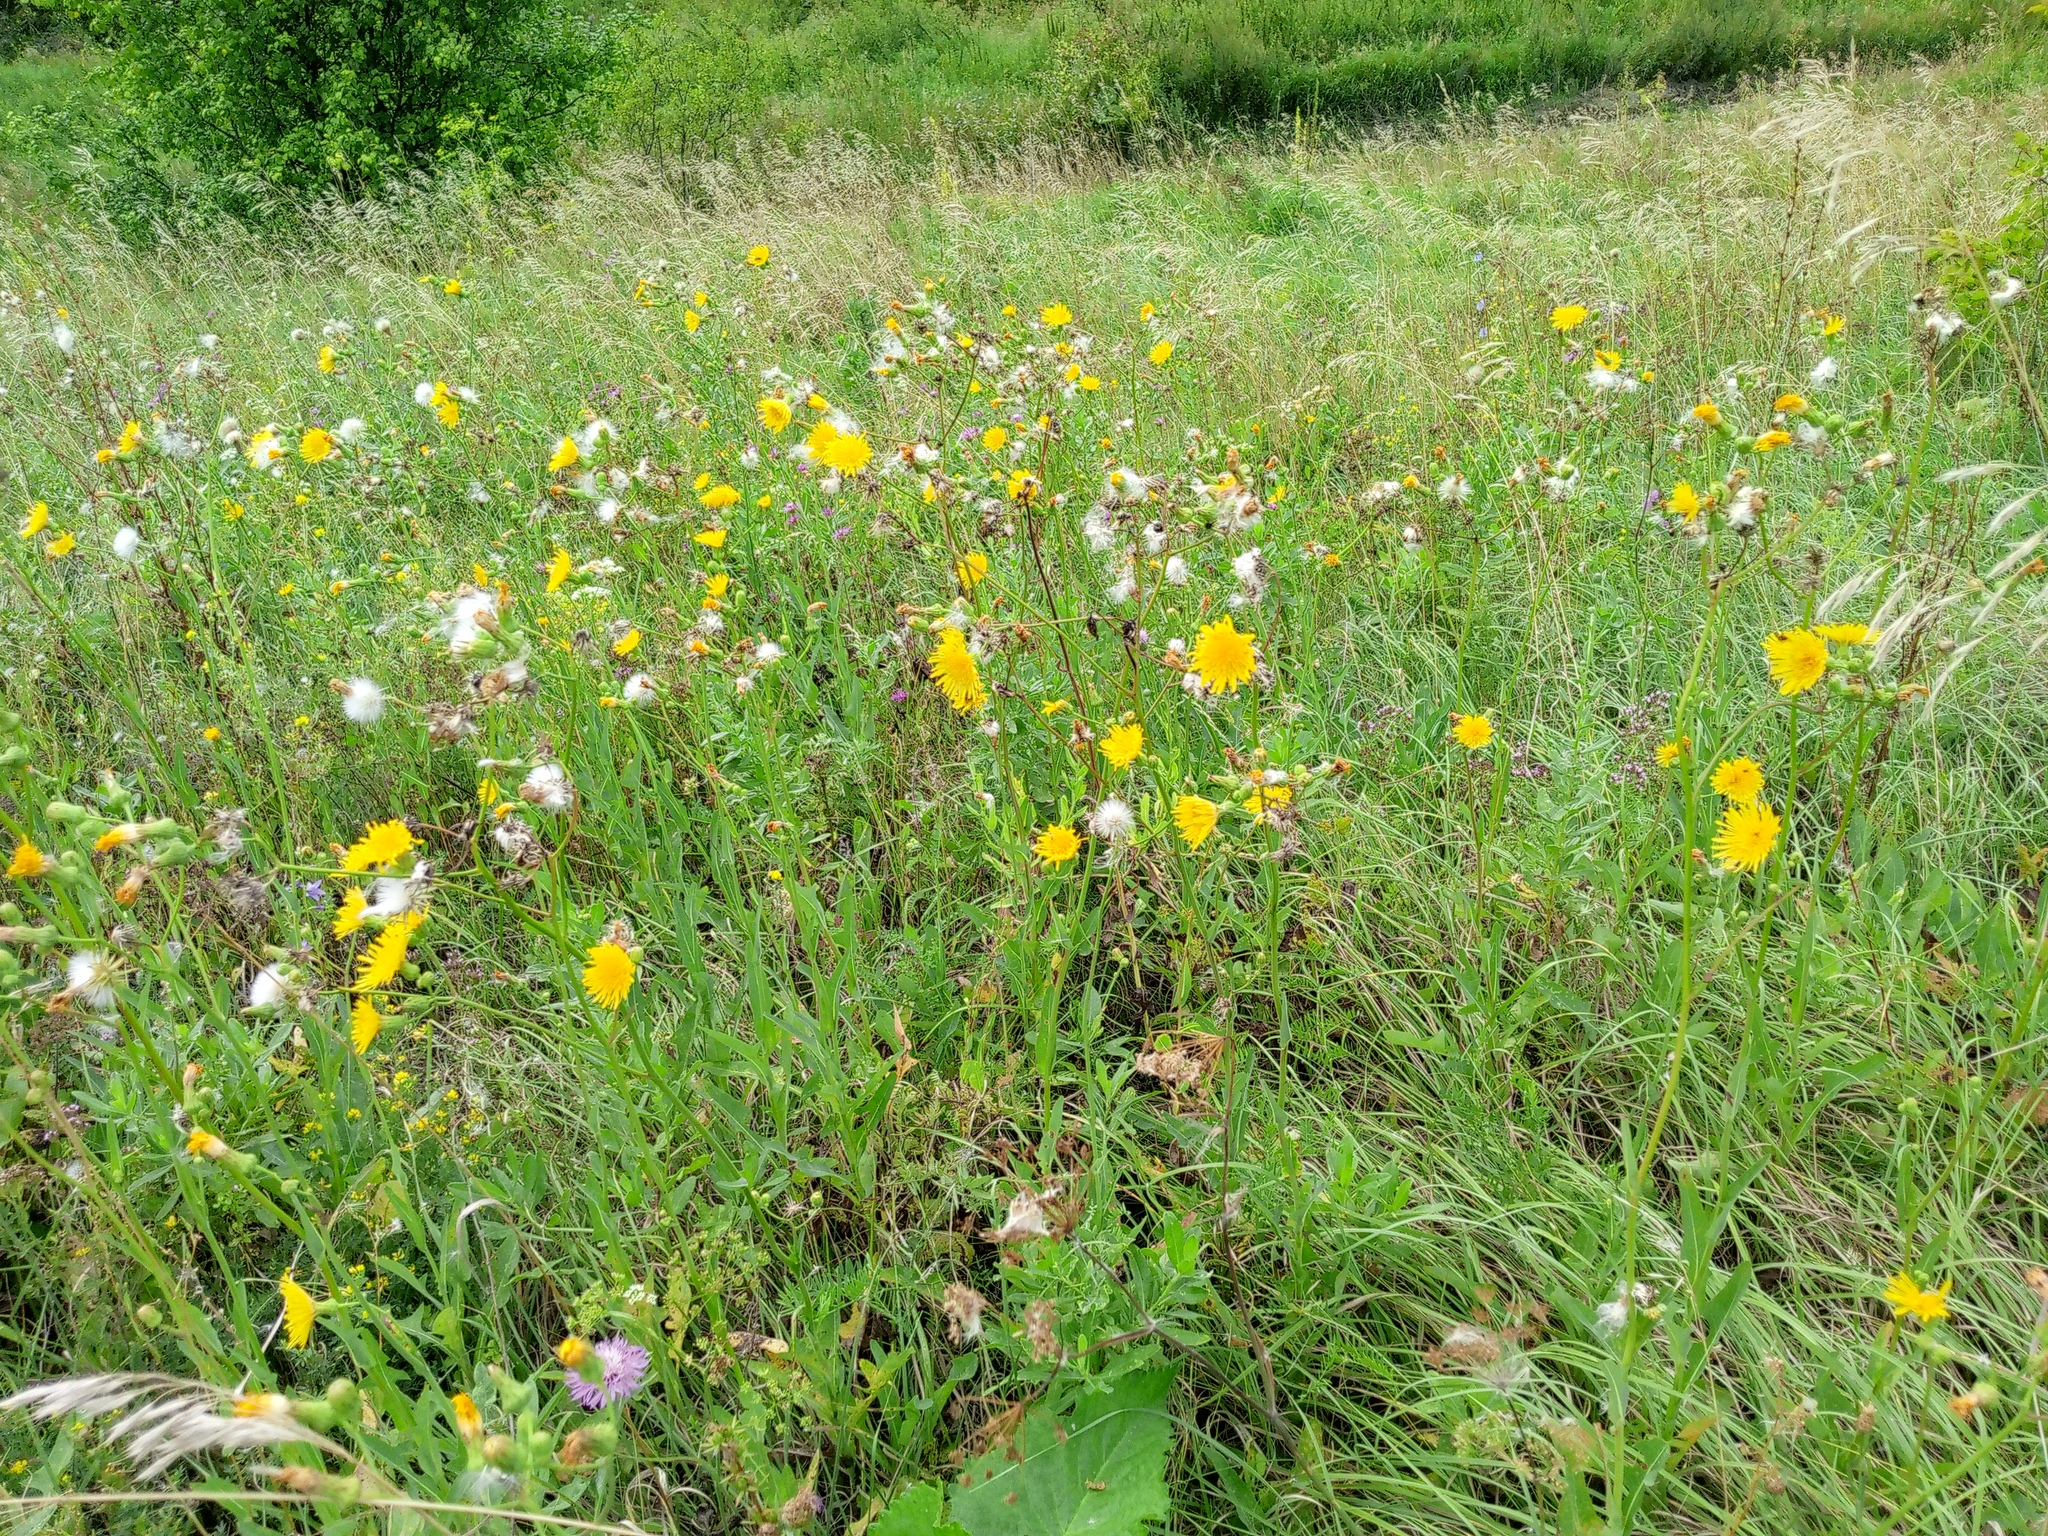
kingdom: Plantae
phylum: Tracheophyta
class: Magnoliopsida
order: Asterales
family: Asteraceae
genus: Sonchus
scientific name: Sonchus arvensis
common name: Perennial sow-thistle
